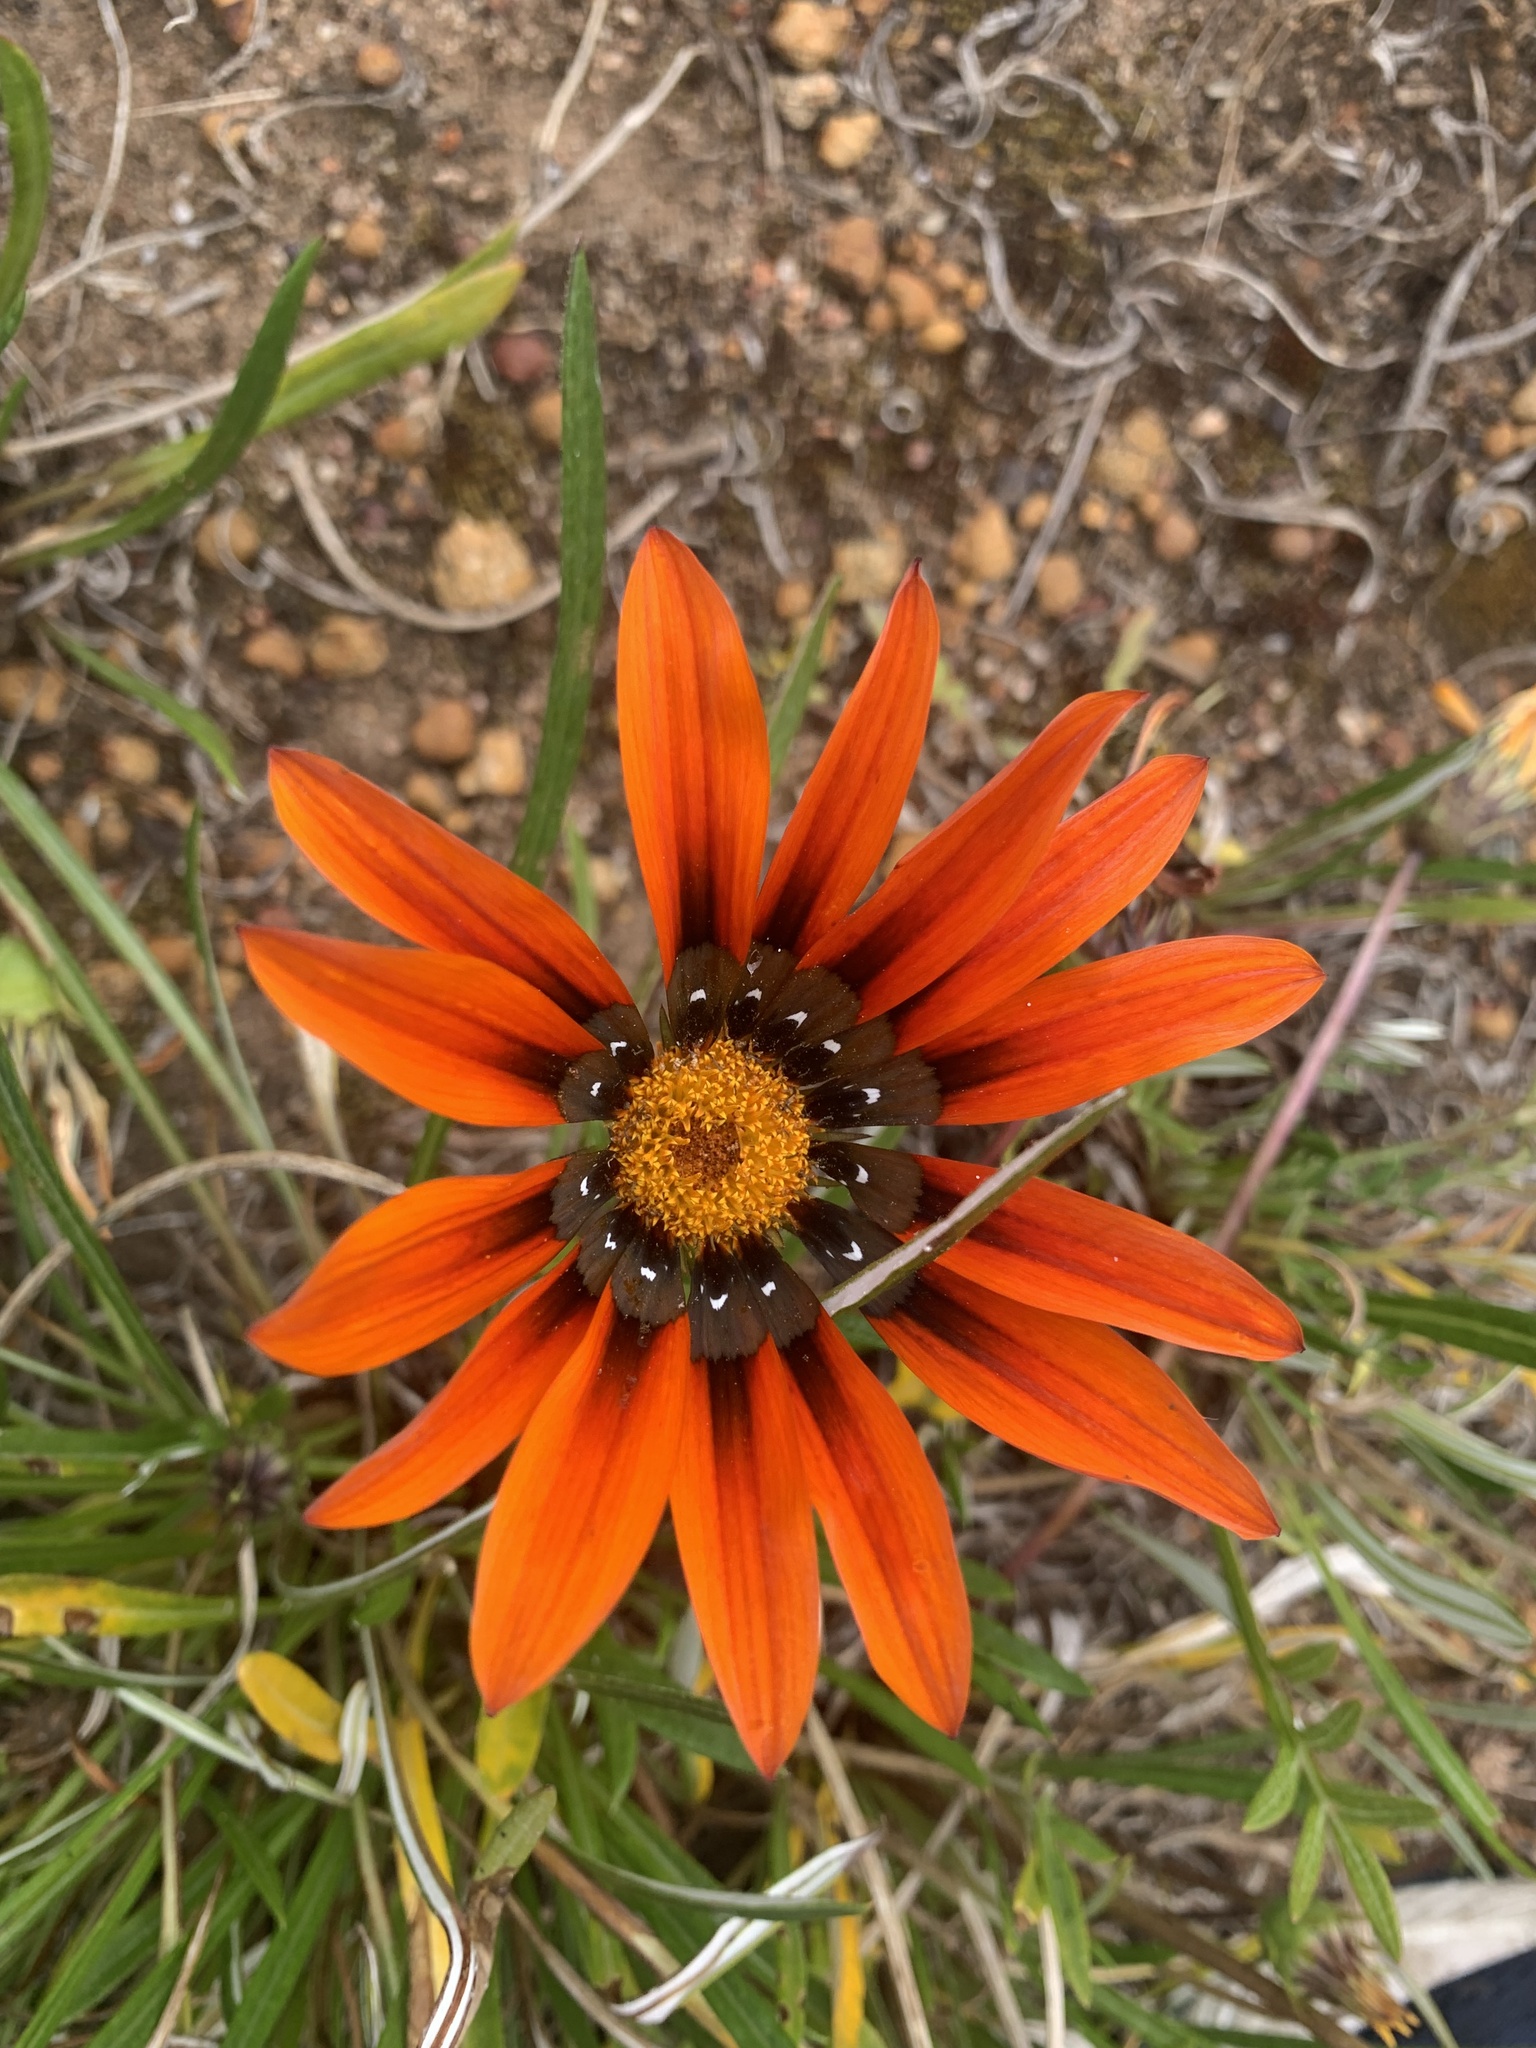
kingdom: Plantae
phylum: Tracheophyta
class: Magnoliopsida
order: Asterales
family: Asteraceae
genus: Gazania
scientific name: Gazania splendens
